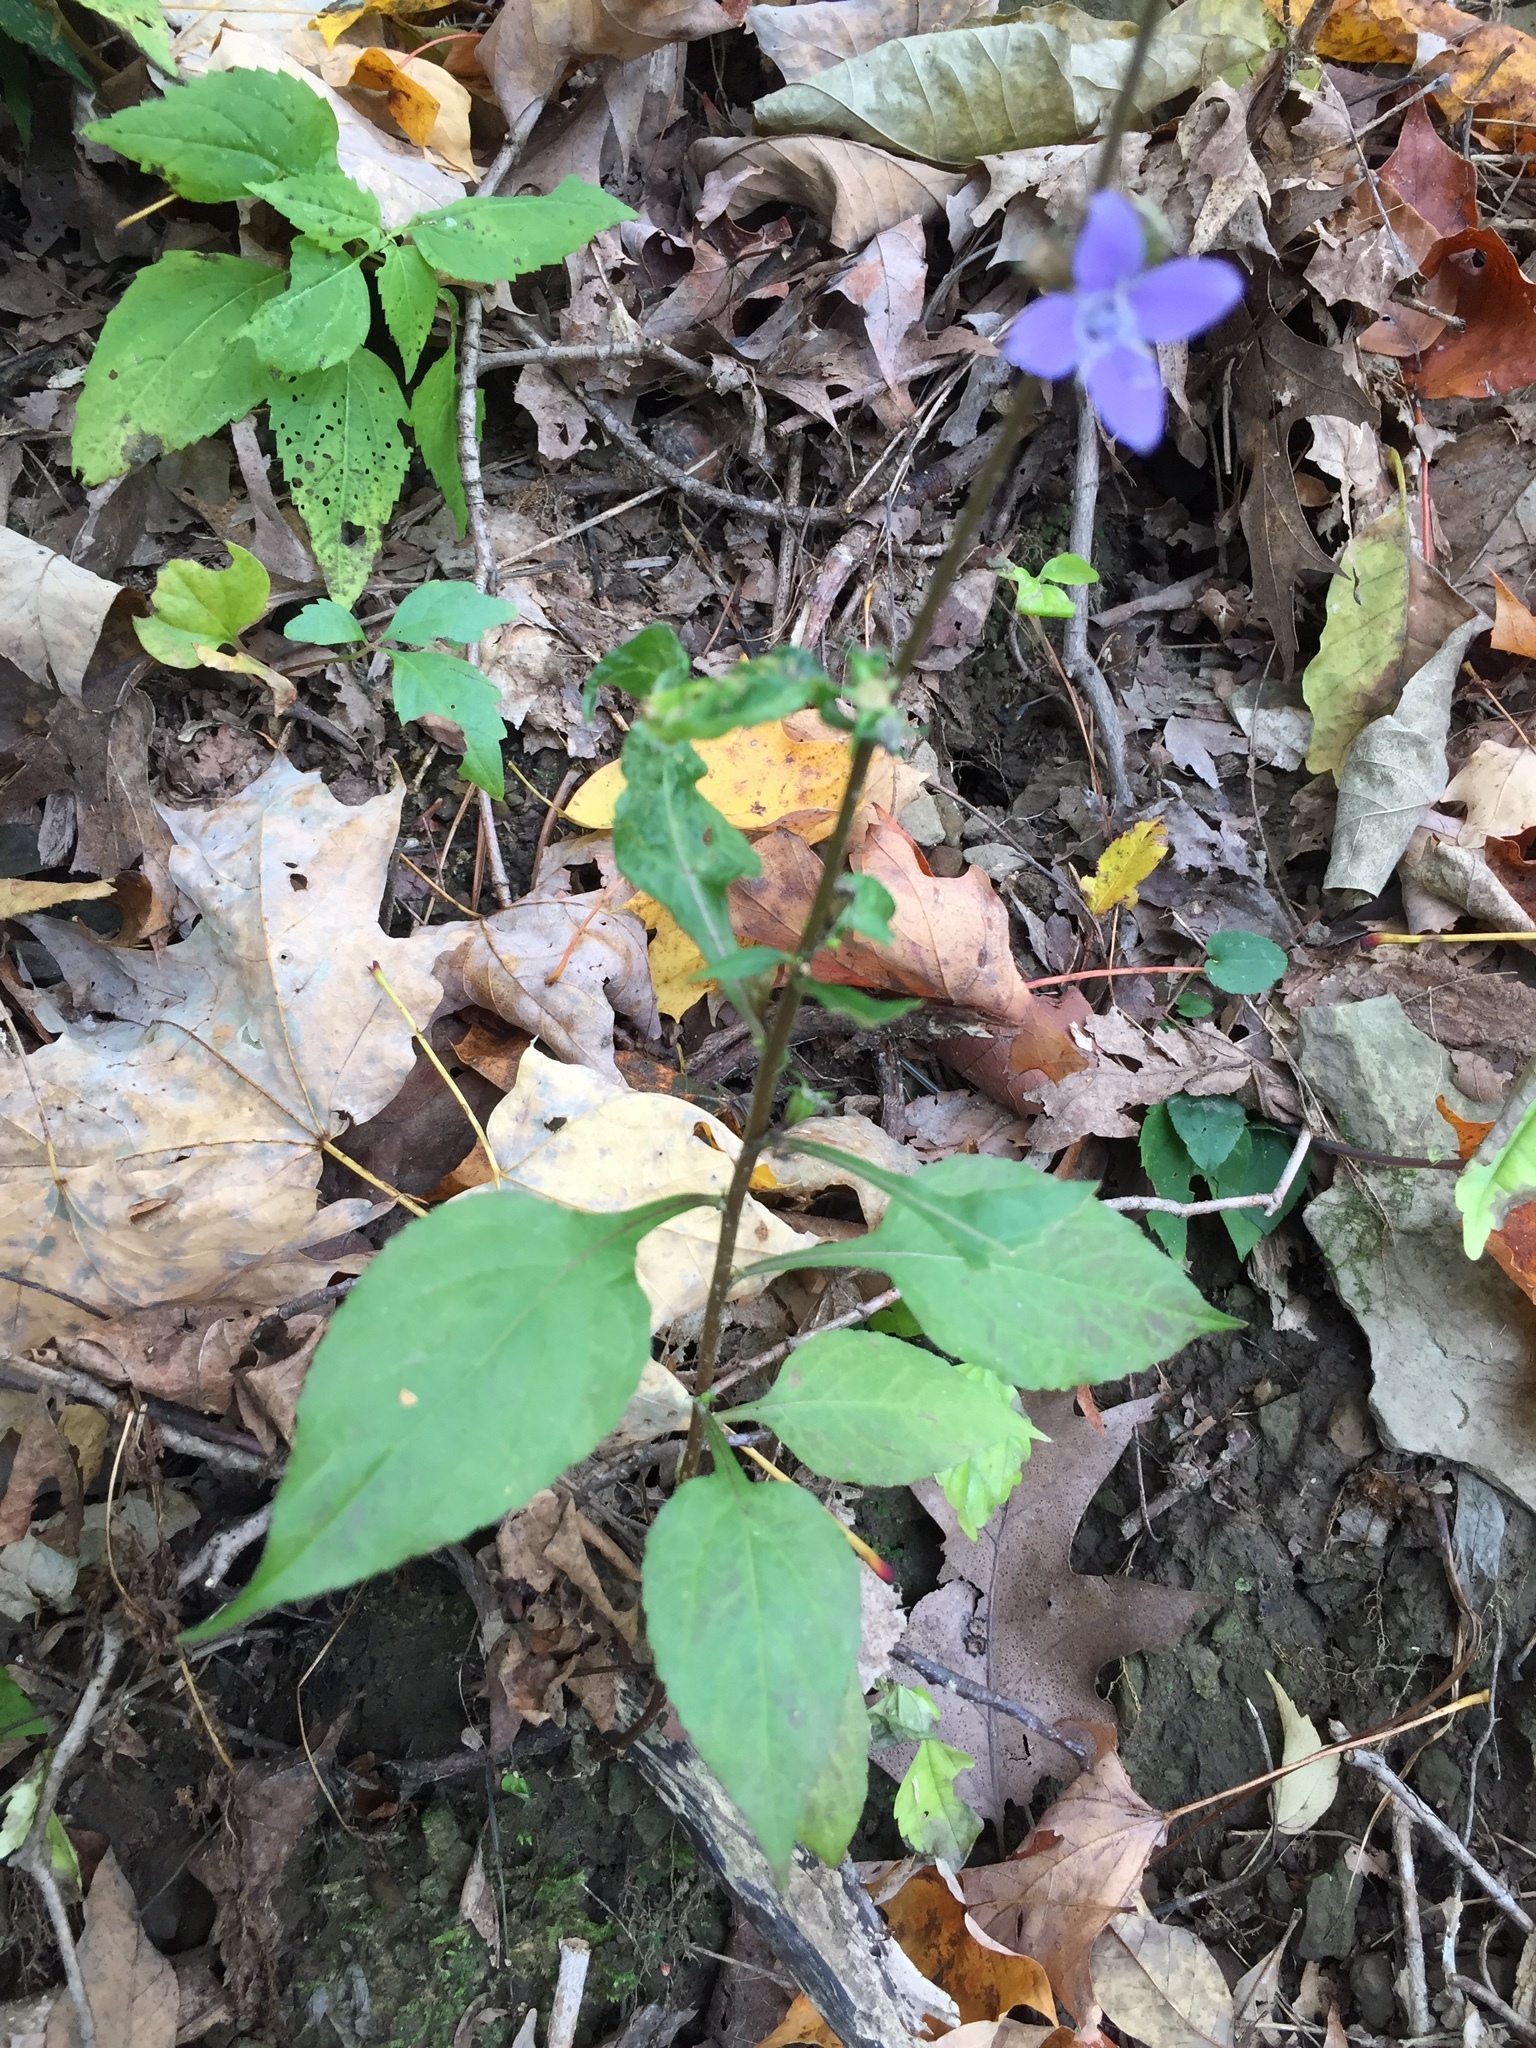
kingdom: Plantae
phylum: Tracheophyta
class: Magnoliopsida
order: Asterales
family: Campanulaceae
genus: Campanulastrum
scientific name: Campanulastrum americanum
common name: American bellflower
